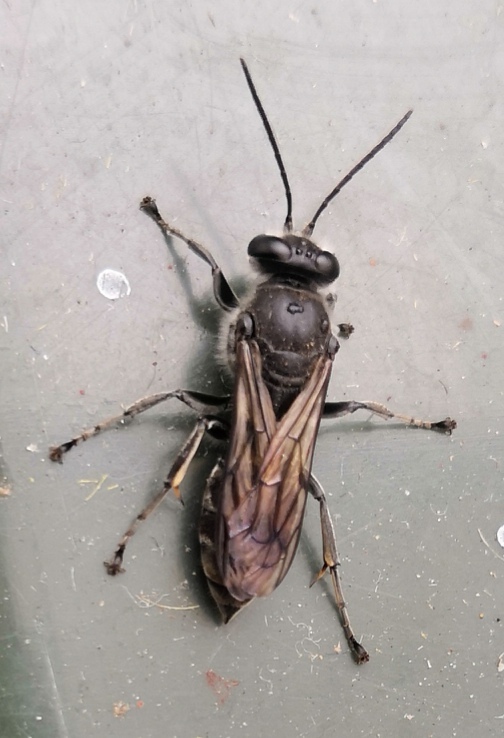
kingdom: Animalia
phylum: Arthropoda
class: Insecta
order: Hymenoptera
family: Crabronidae
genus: Pison
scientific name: Pison spinolae
